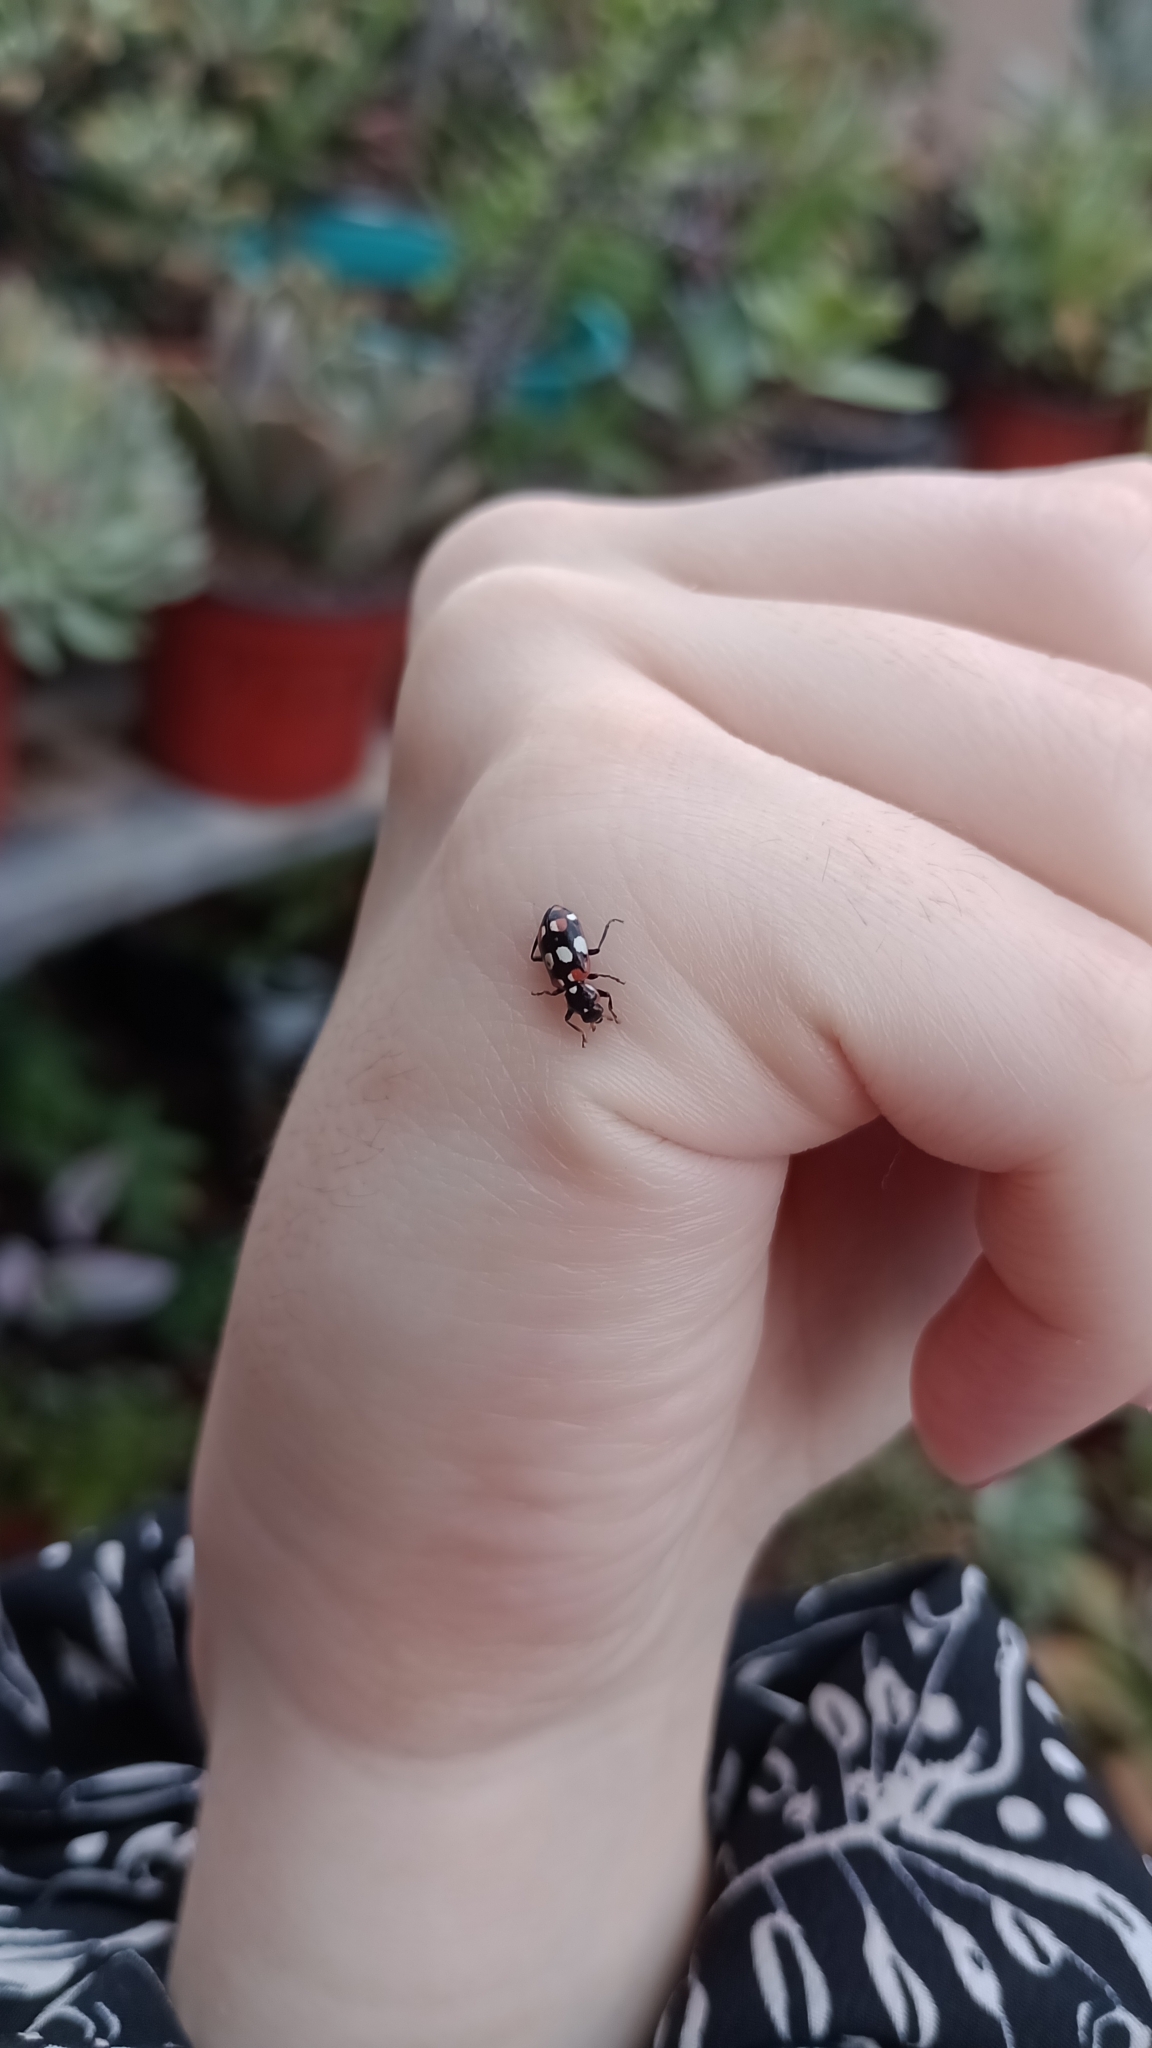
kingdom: Animalia
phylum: Arthropoda
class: Insecta
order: Coleoptera
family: Coccinellidae
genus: Eriopis
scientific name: Eriopis connexa
